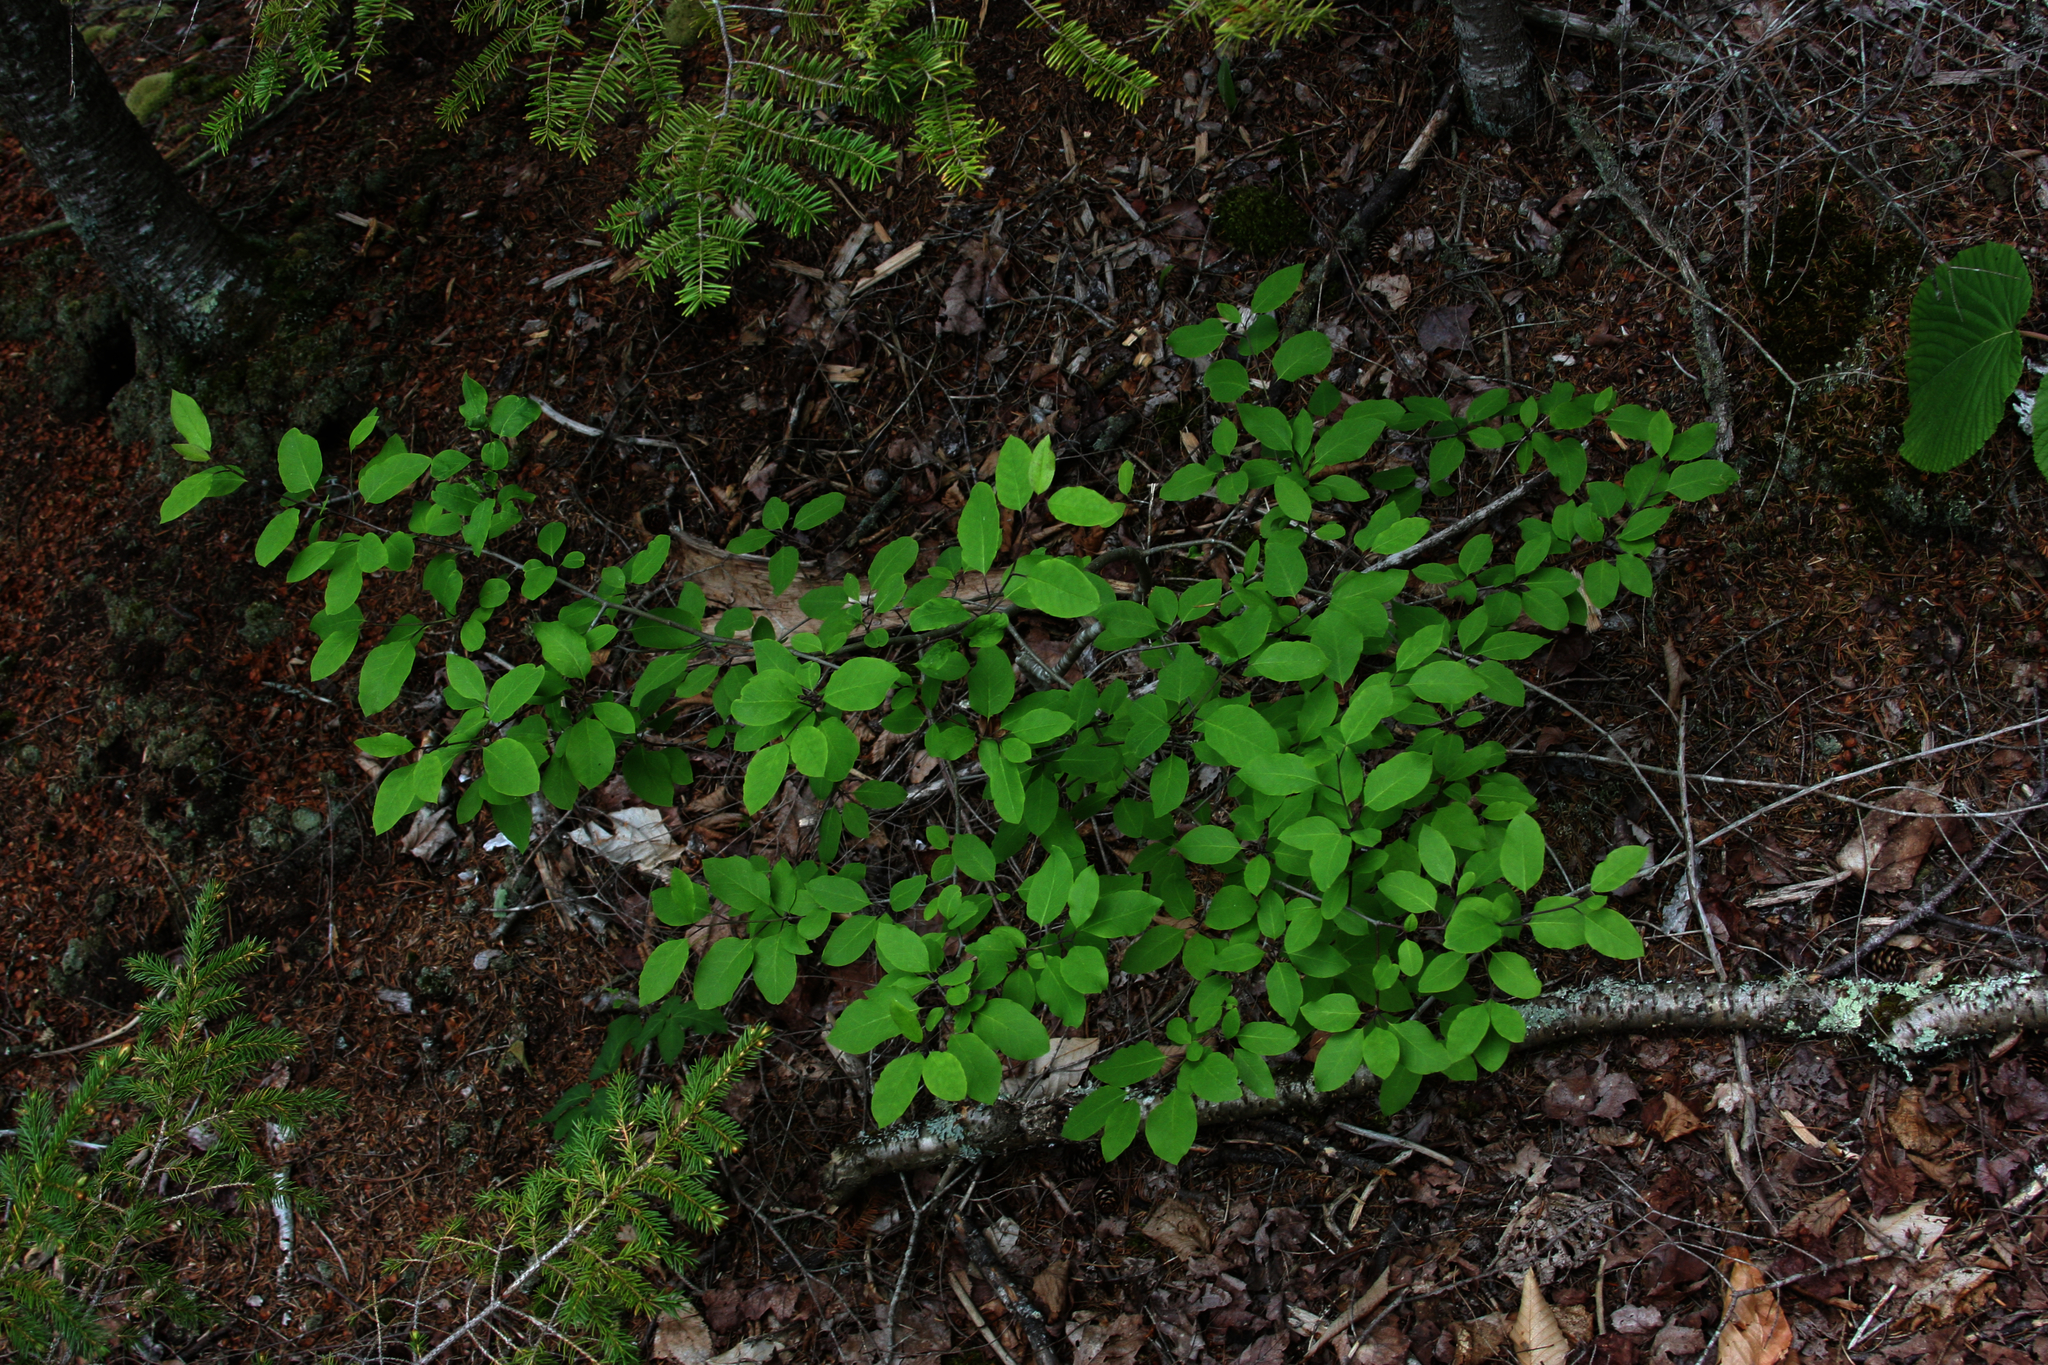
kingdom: Plantae
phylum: Tracheophyta
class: Pinopsida
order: Pinales
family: Pinaceae
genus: Picea
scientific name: Picea rubens
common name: Red spruce
